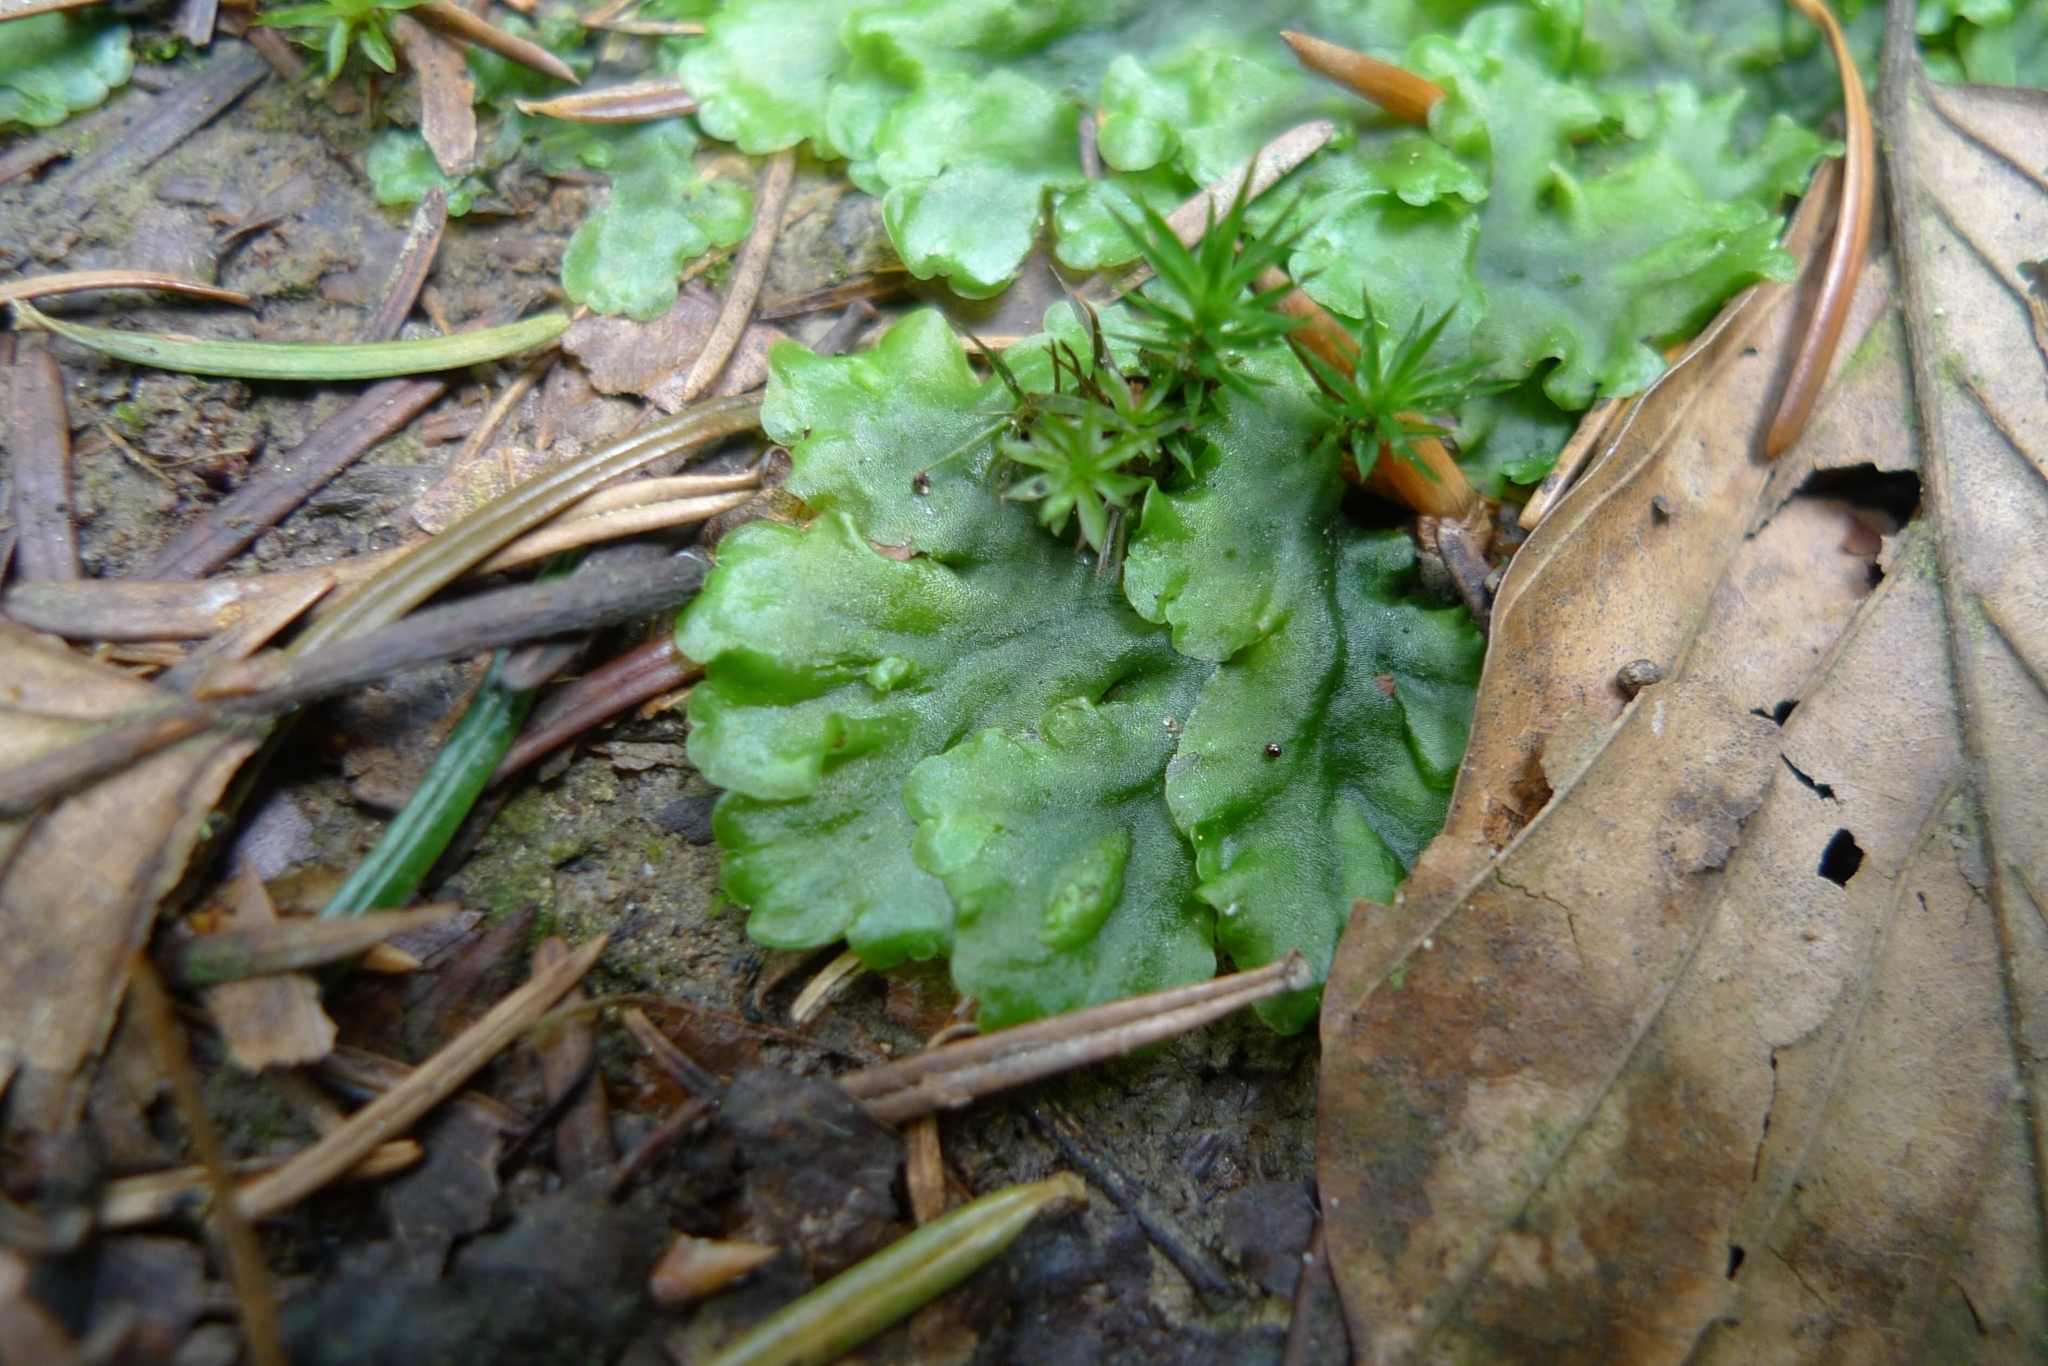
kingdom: Plantae
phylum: Marchantiophyta
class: Jungermanniopsida
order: Pelliales
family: Pelliaceae
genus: Pellia
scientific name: Pellia epiphylla
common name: Common pellia
